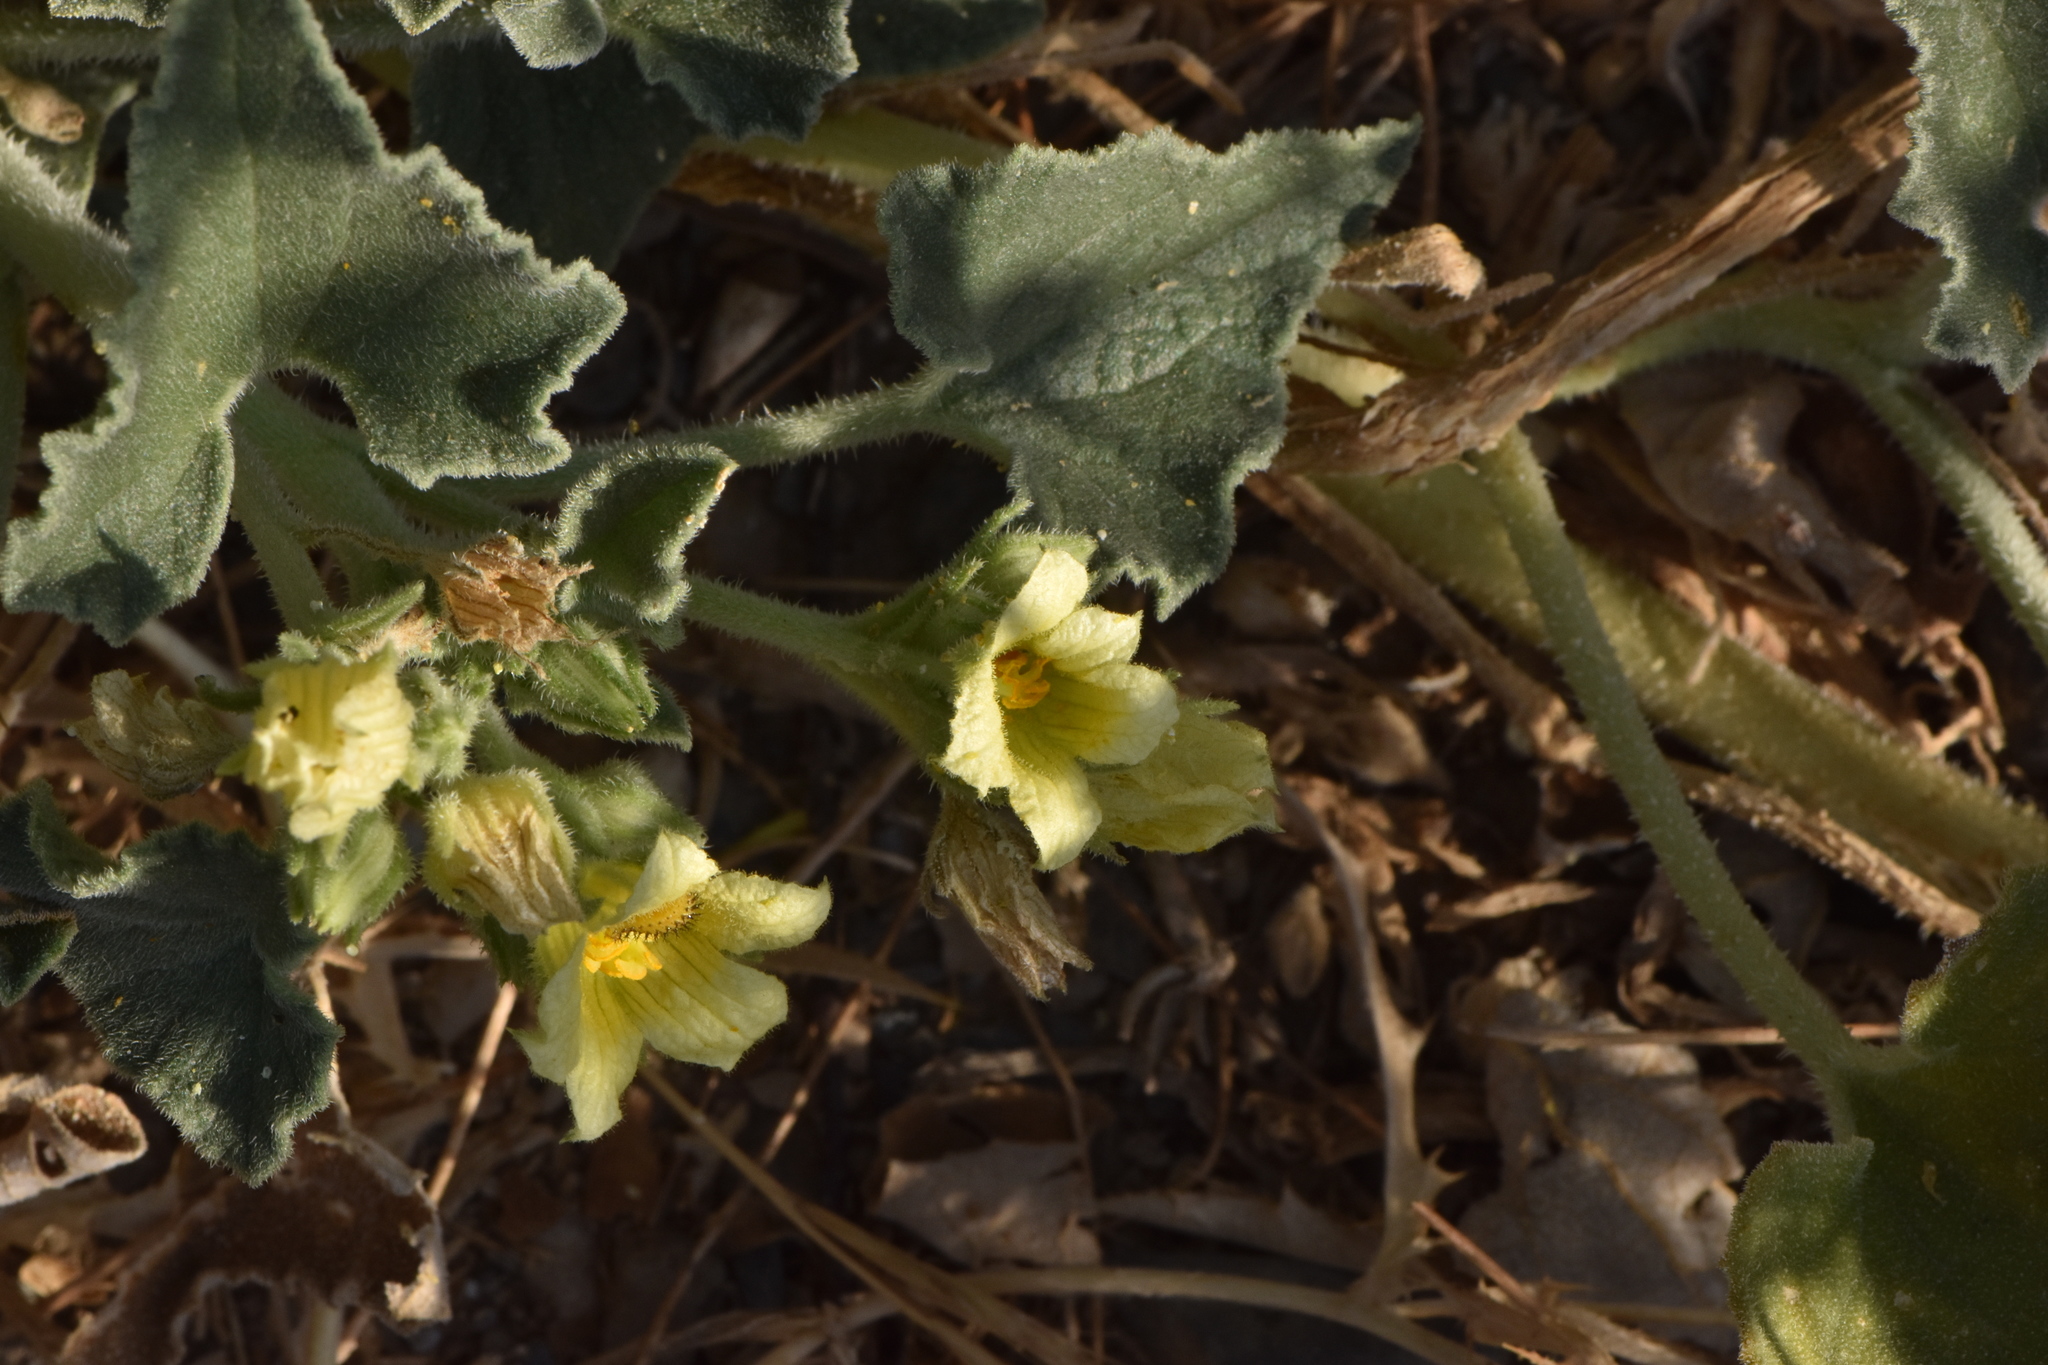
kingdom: Plantae
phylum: Tracheophyta
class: Magnoliopsida
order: Cucurbitales
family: Cucurbitaceae
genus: Ecballium
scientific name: Ecballium elaterium
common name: Squirting cucumber
